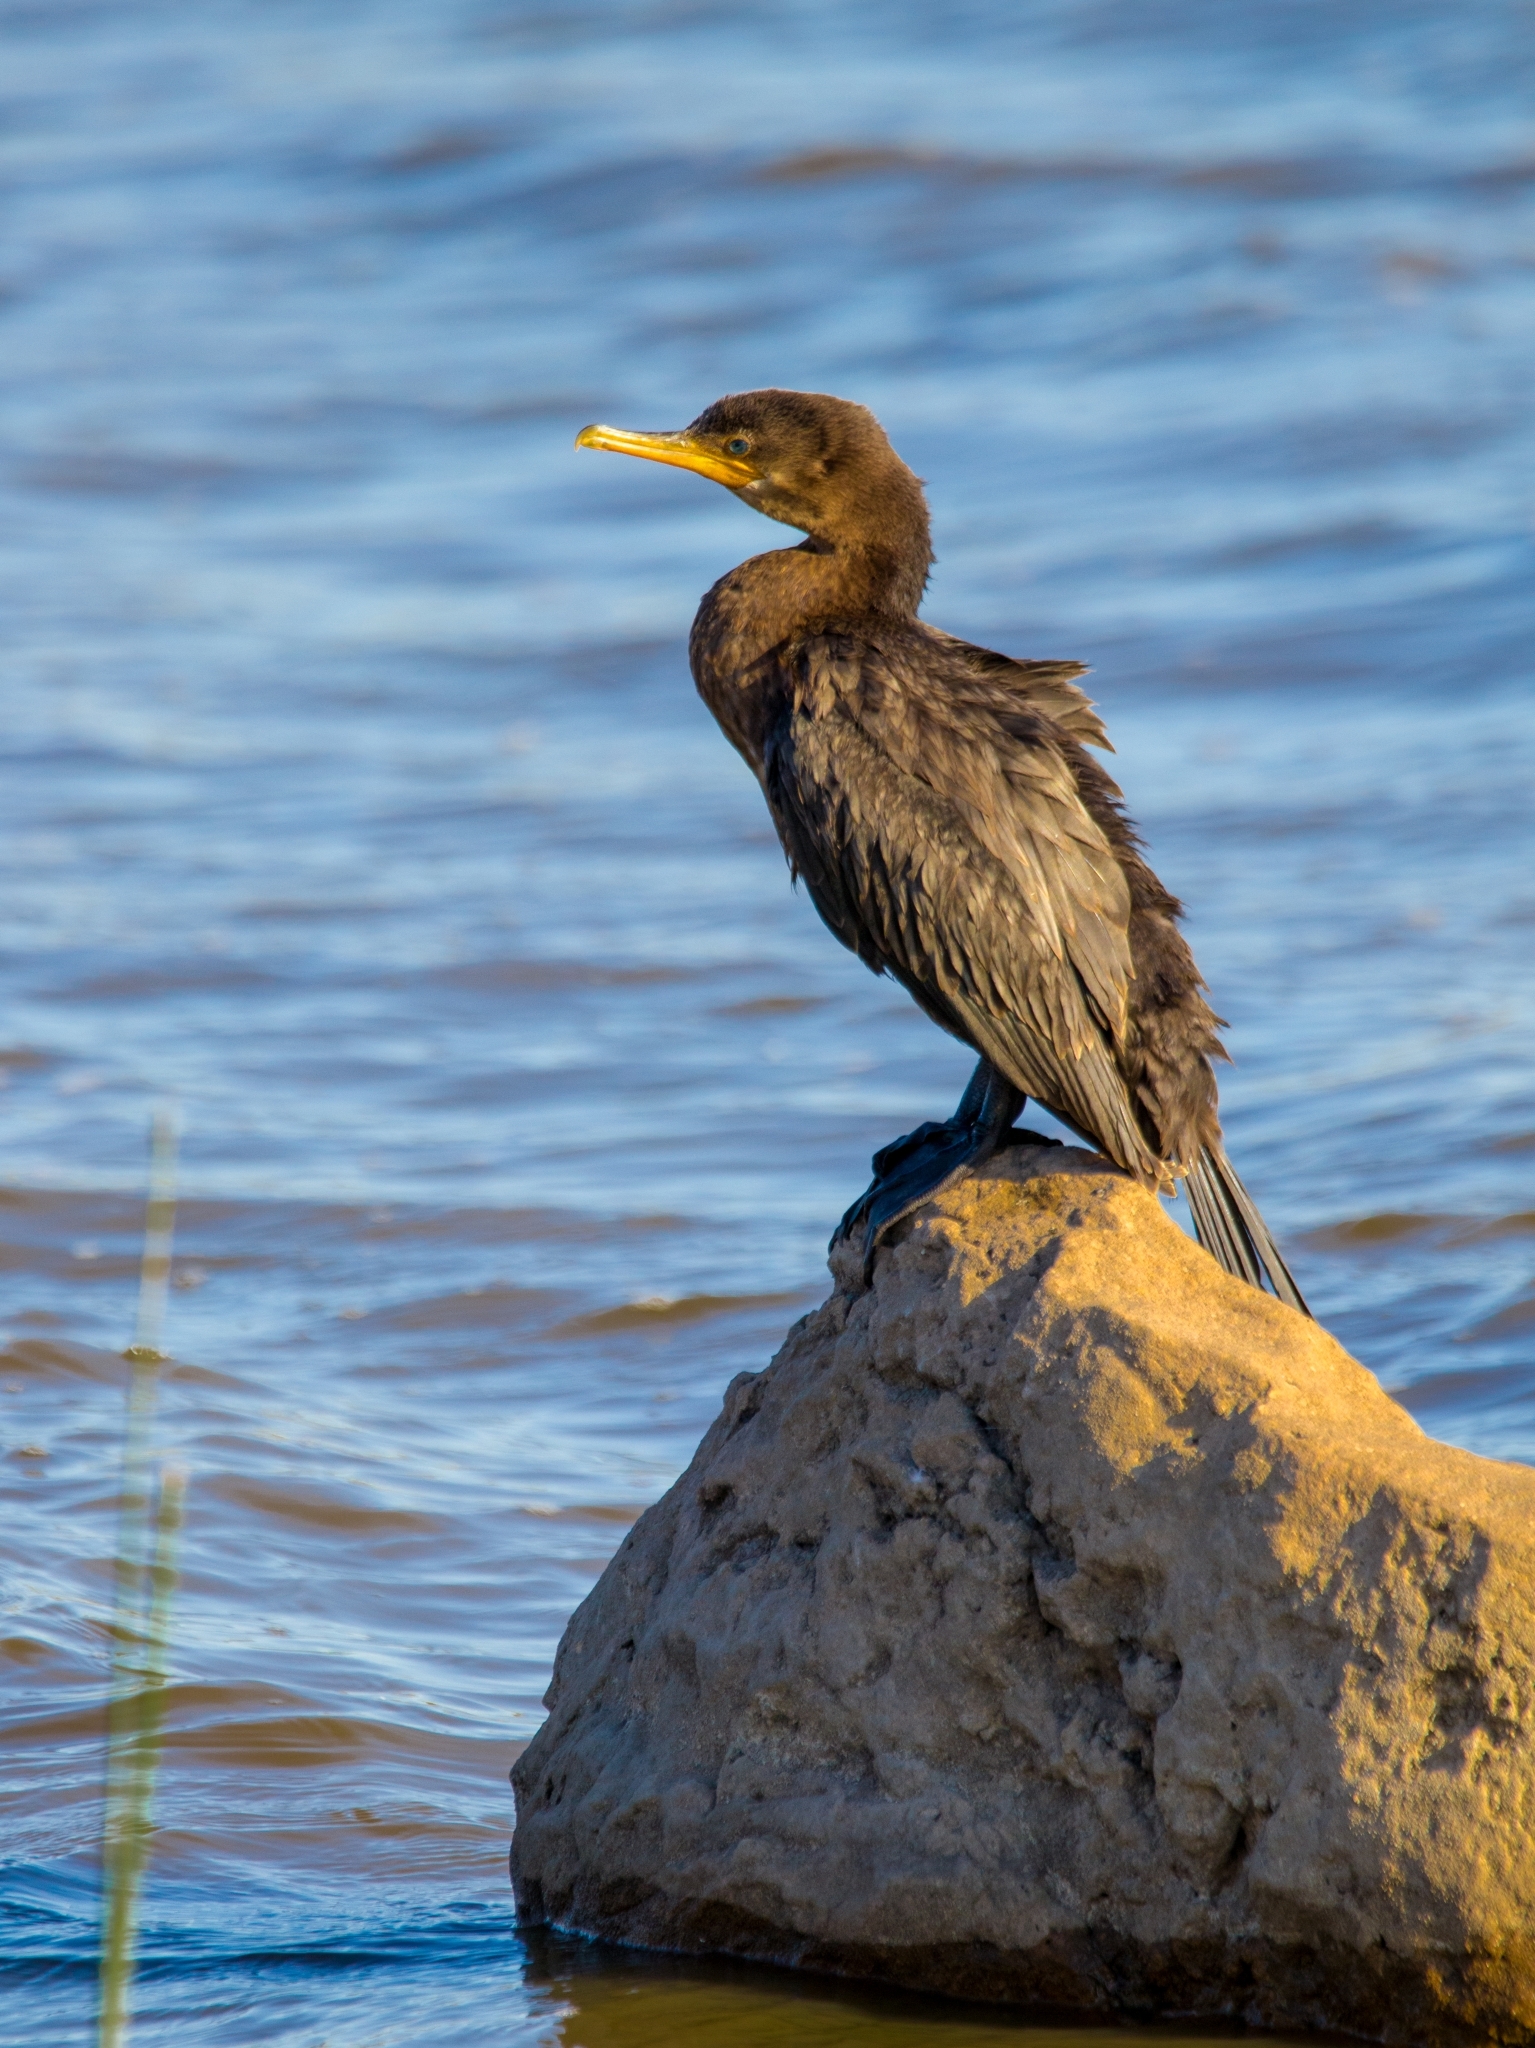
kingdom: Animalia
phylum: Chordata
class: Aves
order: Suliformes
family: Phalacrocoracidae
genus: Phalacrocorax
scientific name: Phalacrocorax brasilianus
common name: Neotropic cormorant
